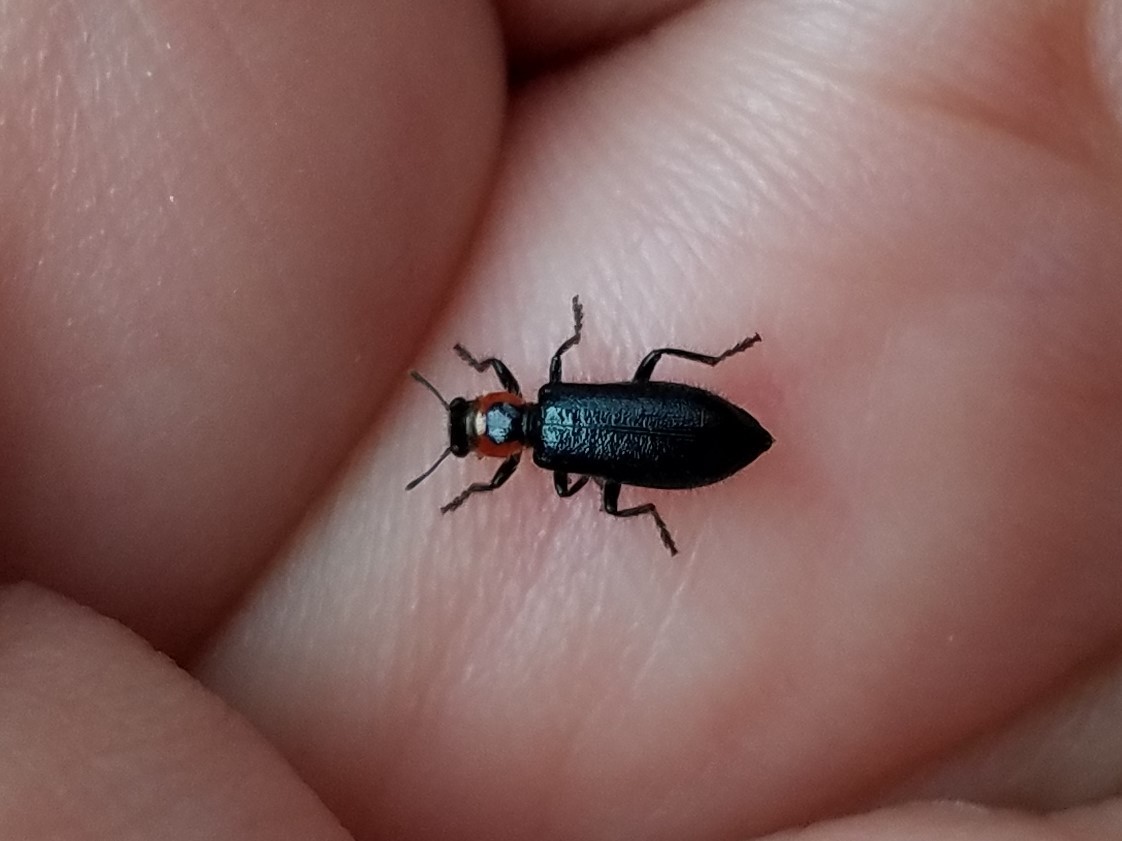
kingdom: Animalia
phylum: Arthropoda
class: Insecta
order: Coleoptera
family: Cleridae
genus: Placopterus
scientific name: Placopterus thoracicus
